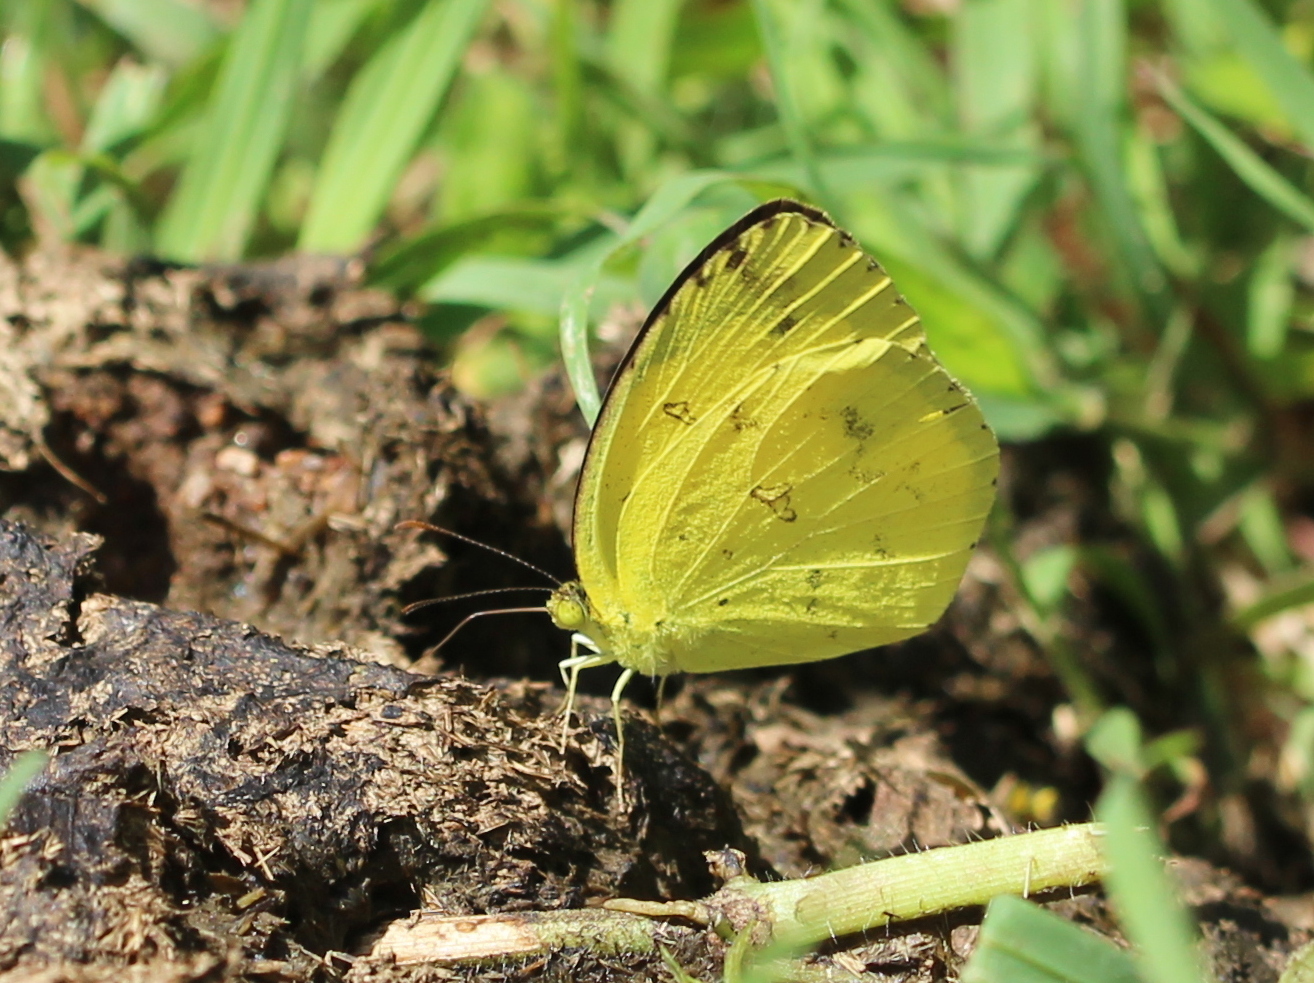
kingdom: Animalia
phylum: Arthropoda
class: Insecta
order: Lepidoptera
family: Pieridae
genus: Eurema
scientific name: Eurema hecabe
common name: Pale grass yellow
